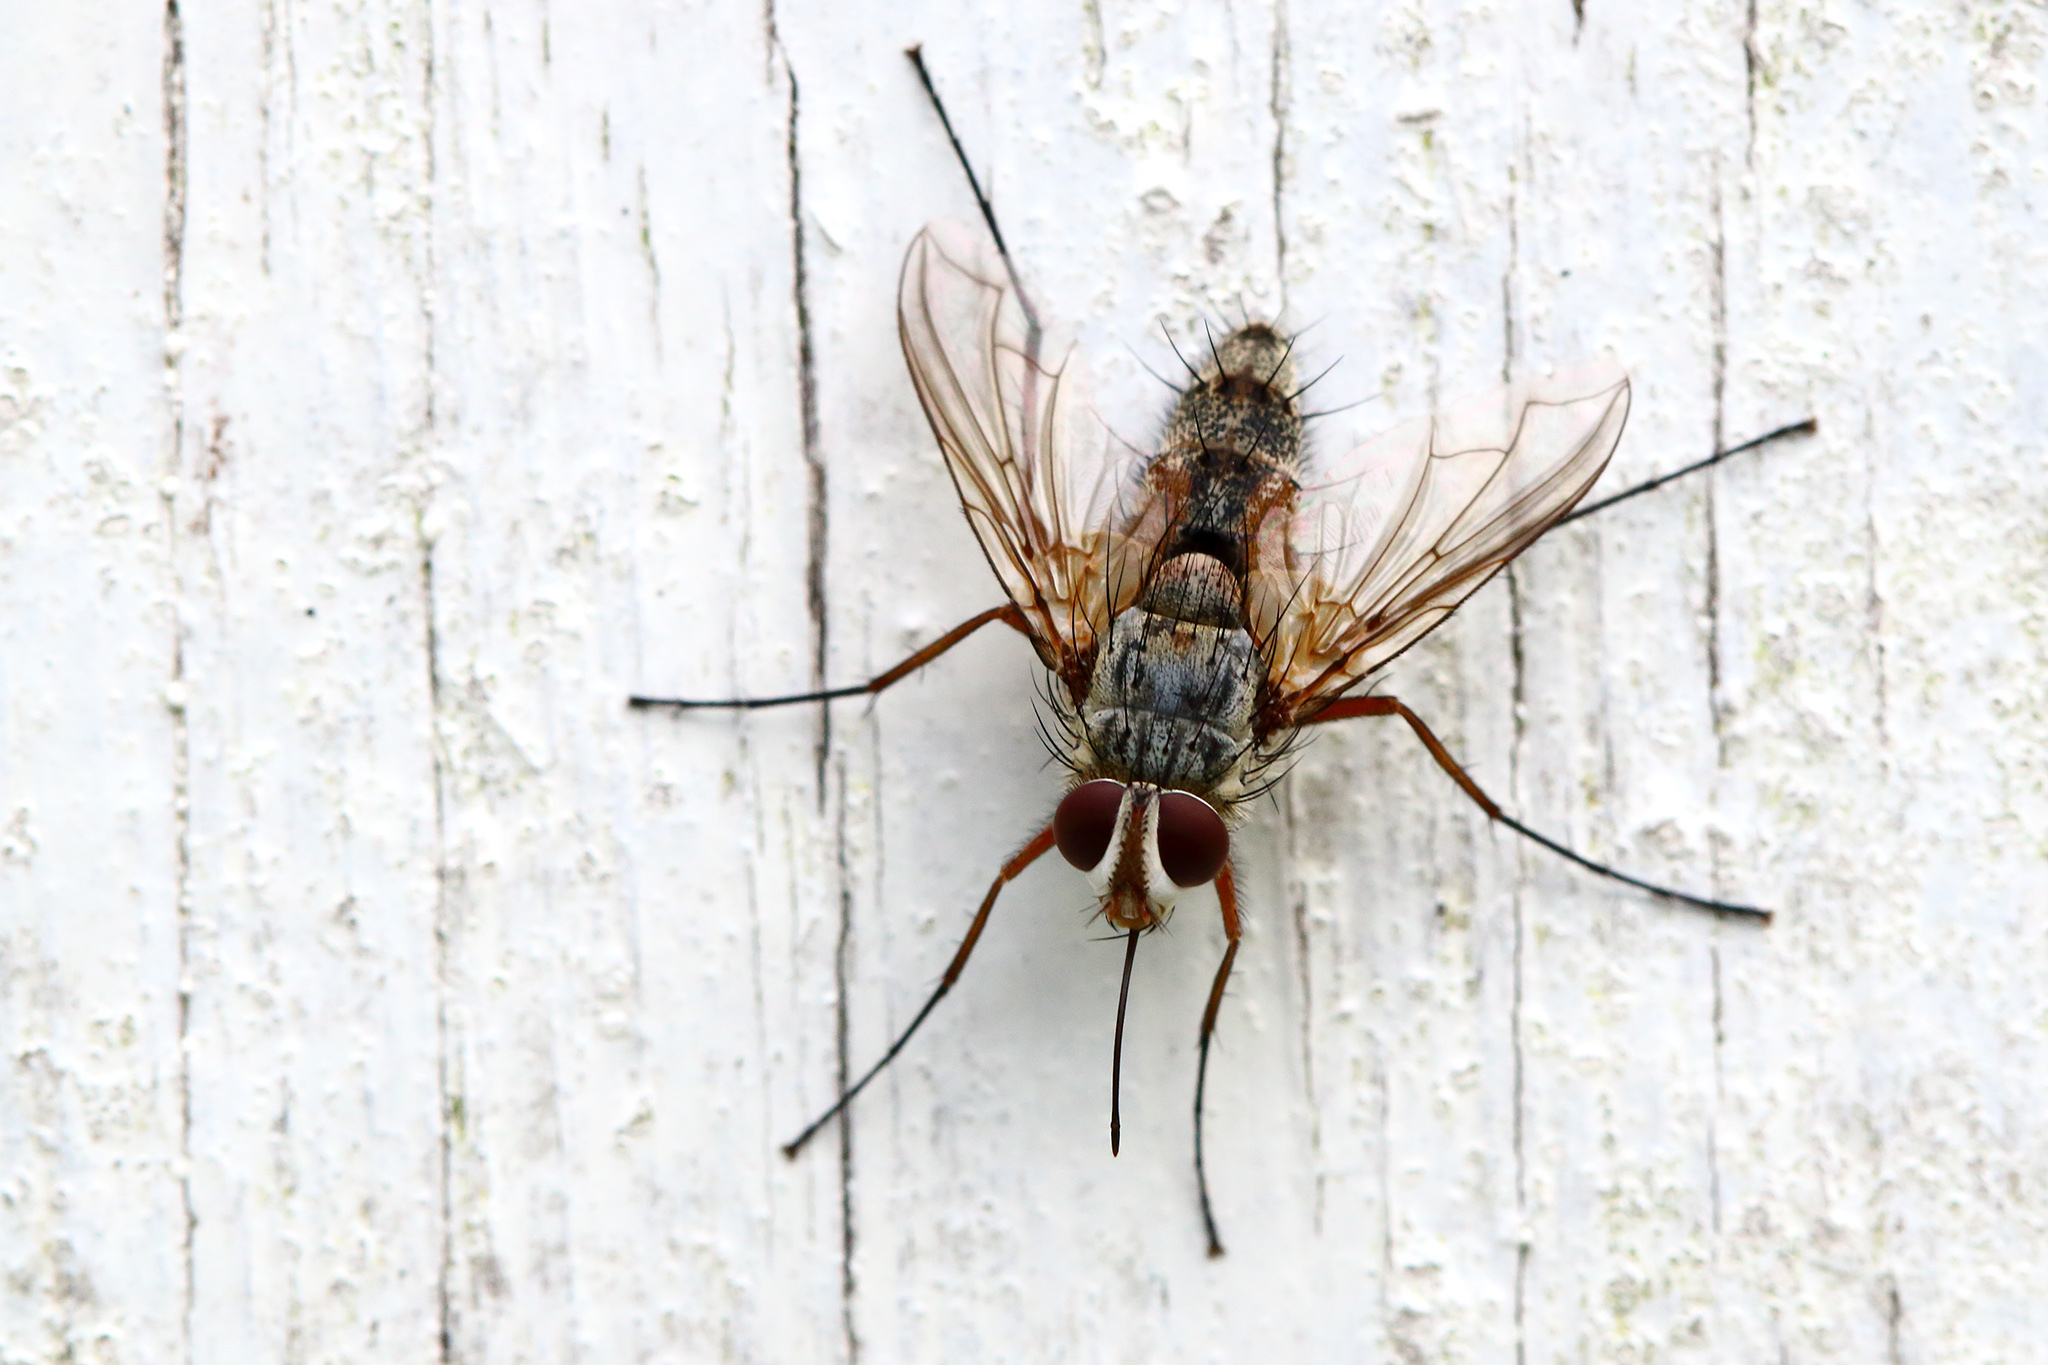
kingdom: Animalia
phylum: Arthropoda
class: Insecta
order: Diptera
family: Tachinidae
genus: Prosena
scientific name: Prosena siberita
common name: Parasitic fly
